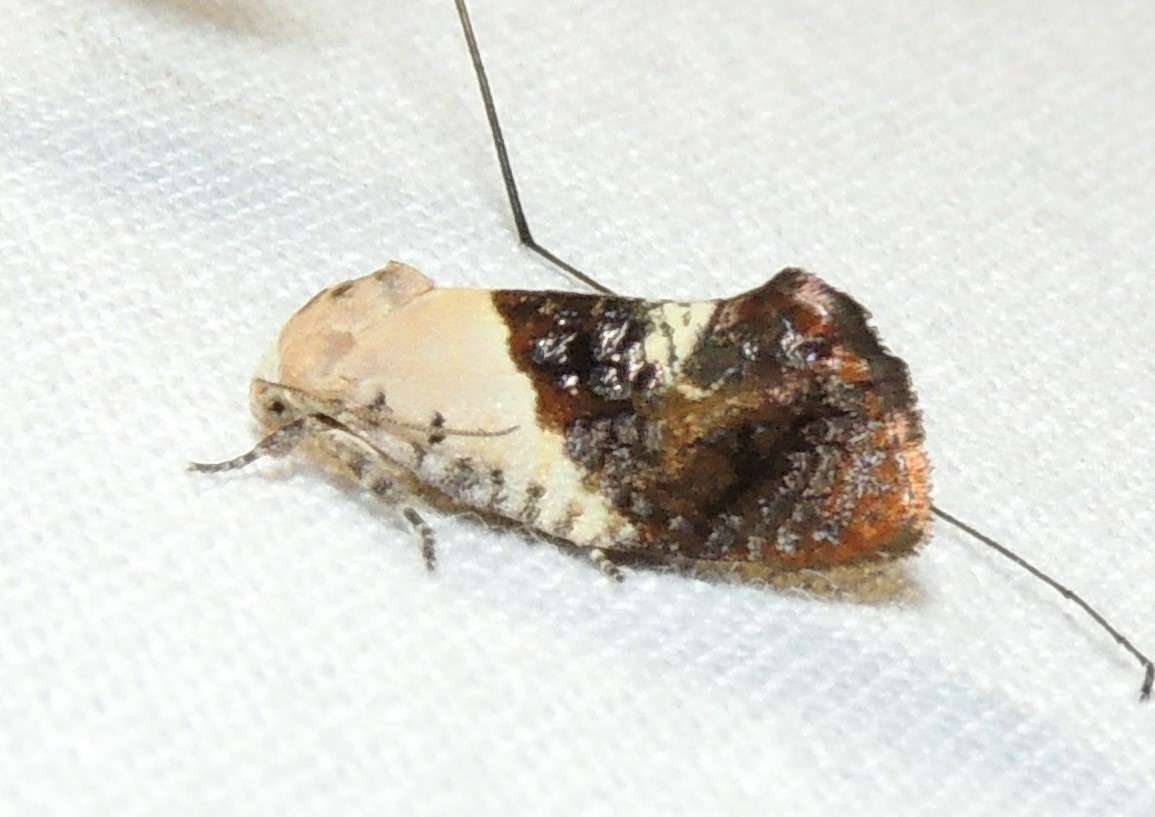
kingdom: Animalia
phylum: Arthropoda
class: Insecta
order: Lepidoptera
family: Depressariidae
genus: Hypertropha
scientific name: Hypertropha chlaenota
